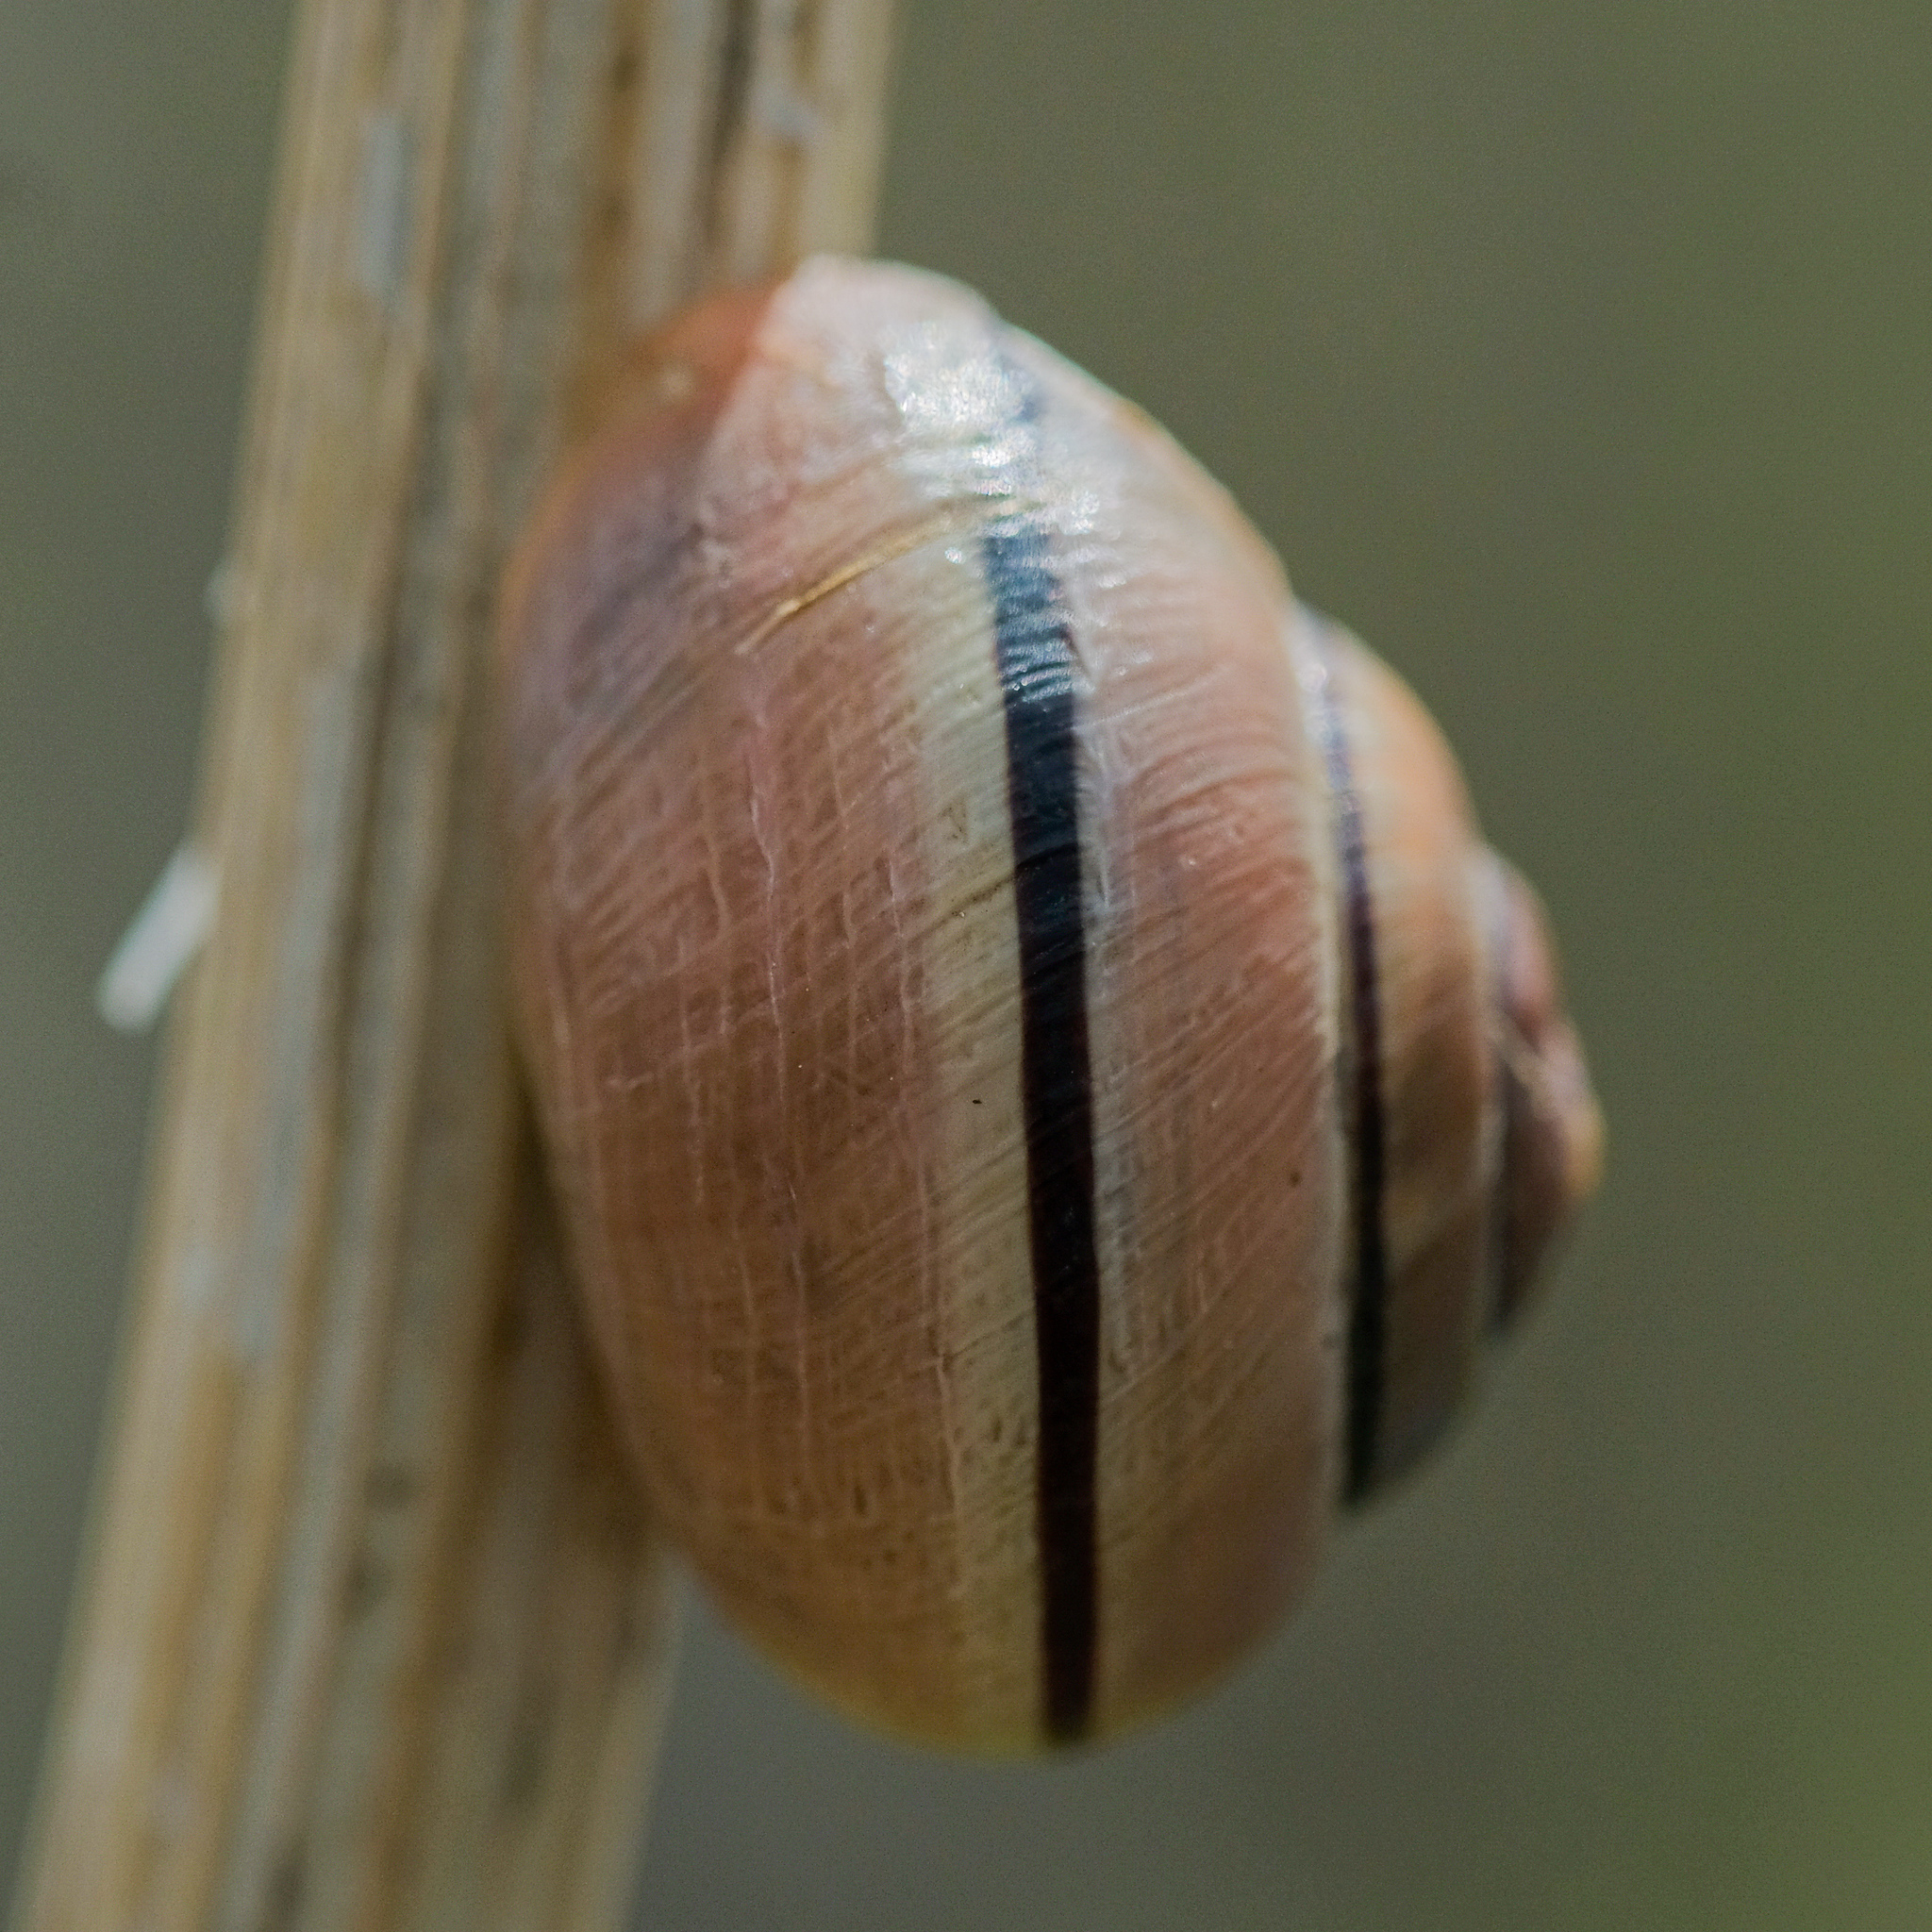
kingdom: Animalia
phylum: Mollusca
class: Gastropoda
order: Stylommatophora
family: Helicidae
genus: Cepaea
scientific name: Cepaea nemoralis
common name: Grovesnail
